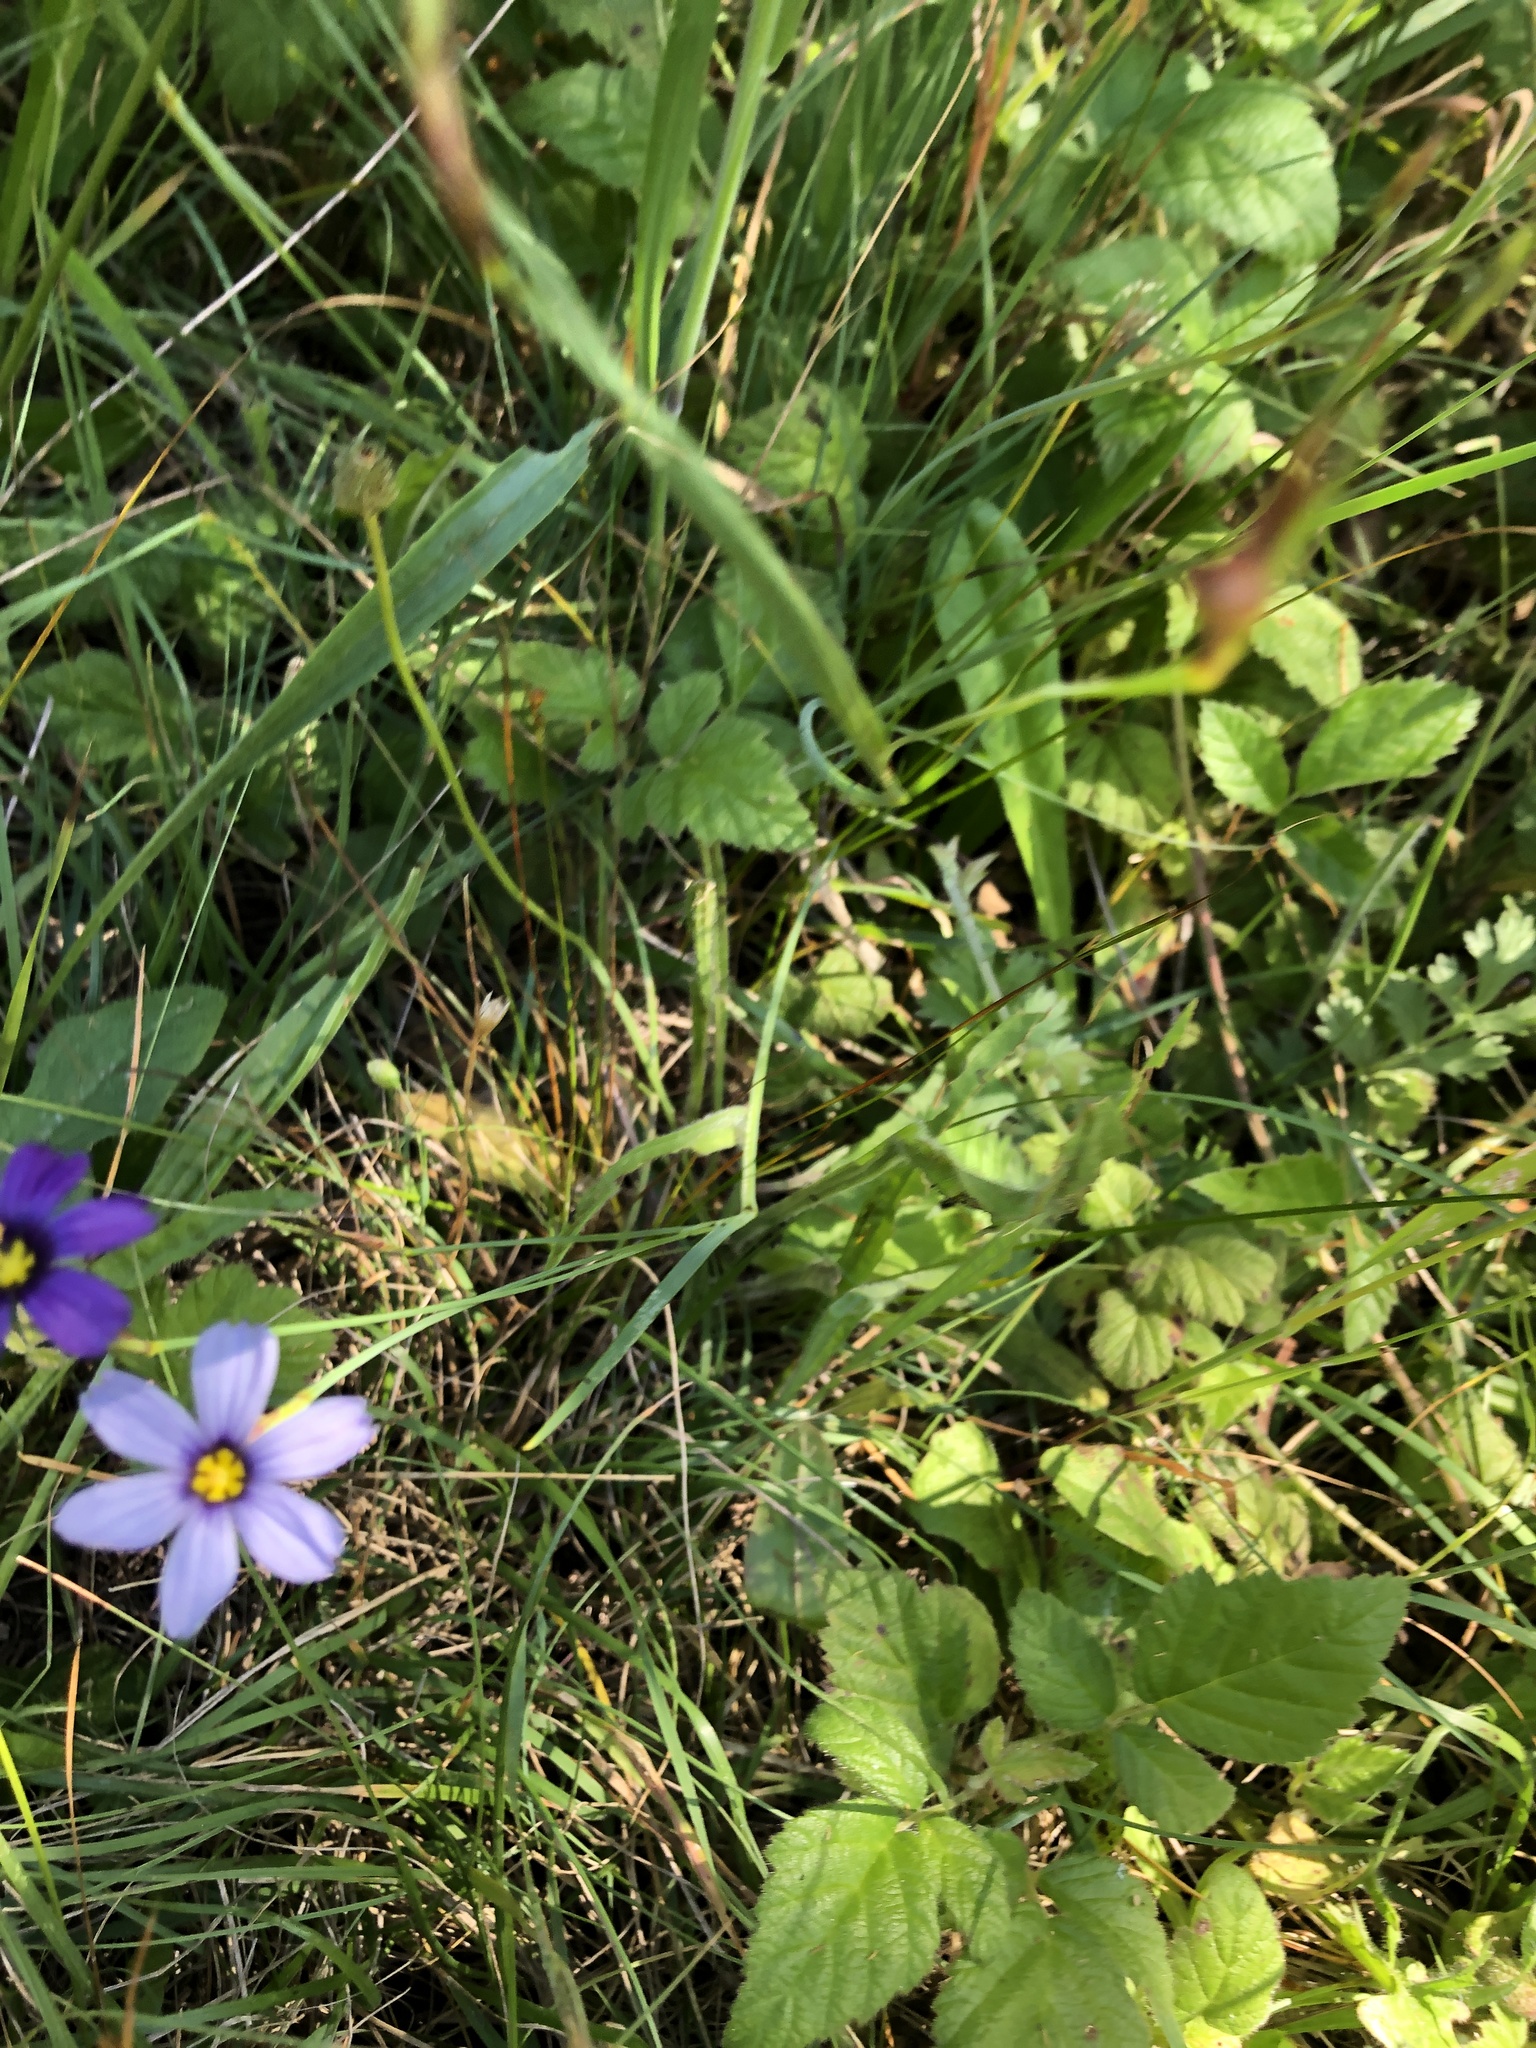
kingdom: Plantae
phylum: Tracheophyta
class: Liliopsida
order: Asparagales
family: Iridaceae
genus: Sisyrinchium
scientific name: Sisyrinchium bellum
